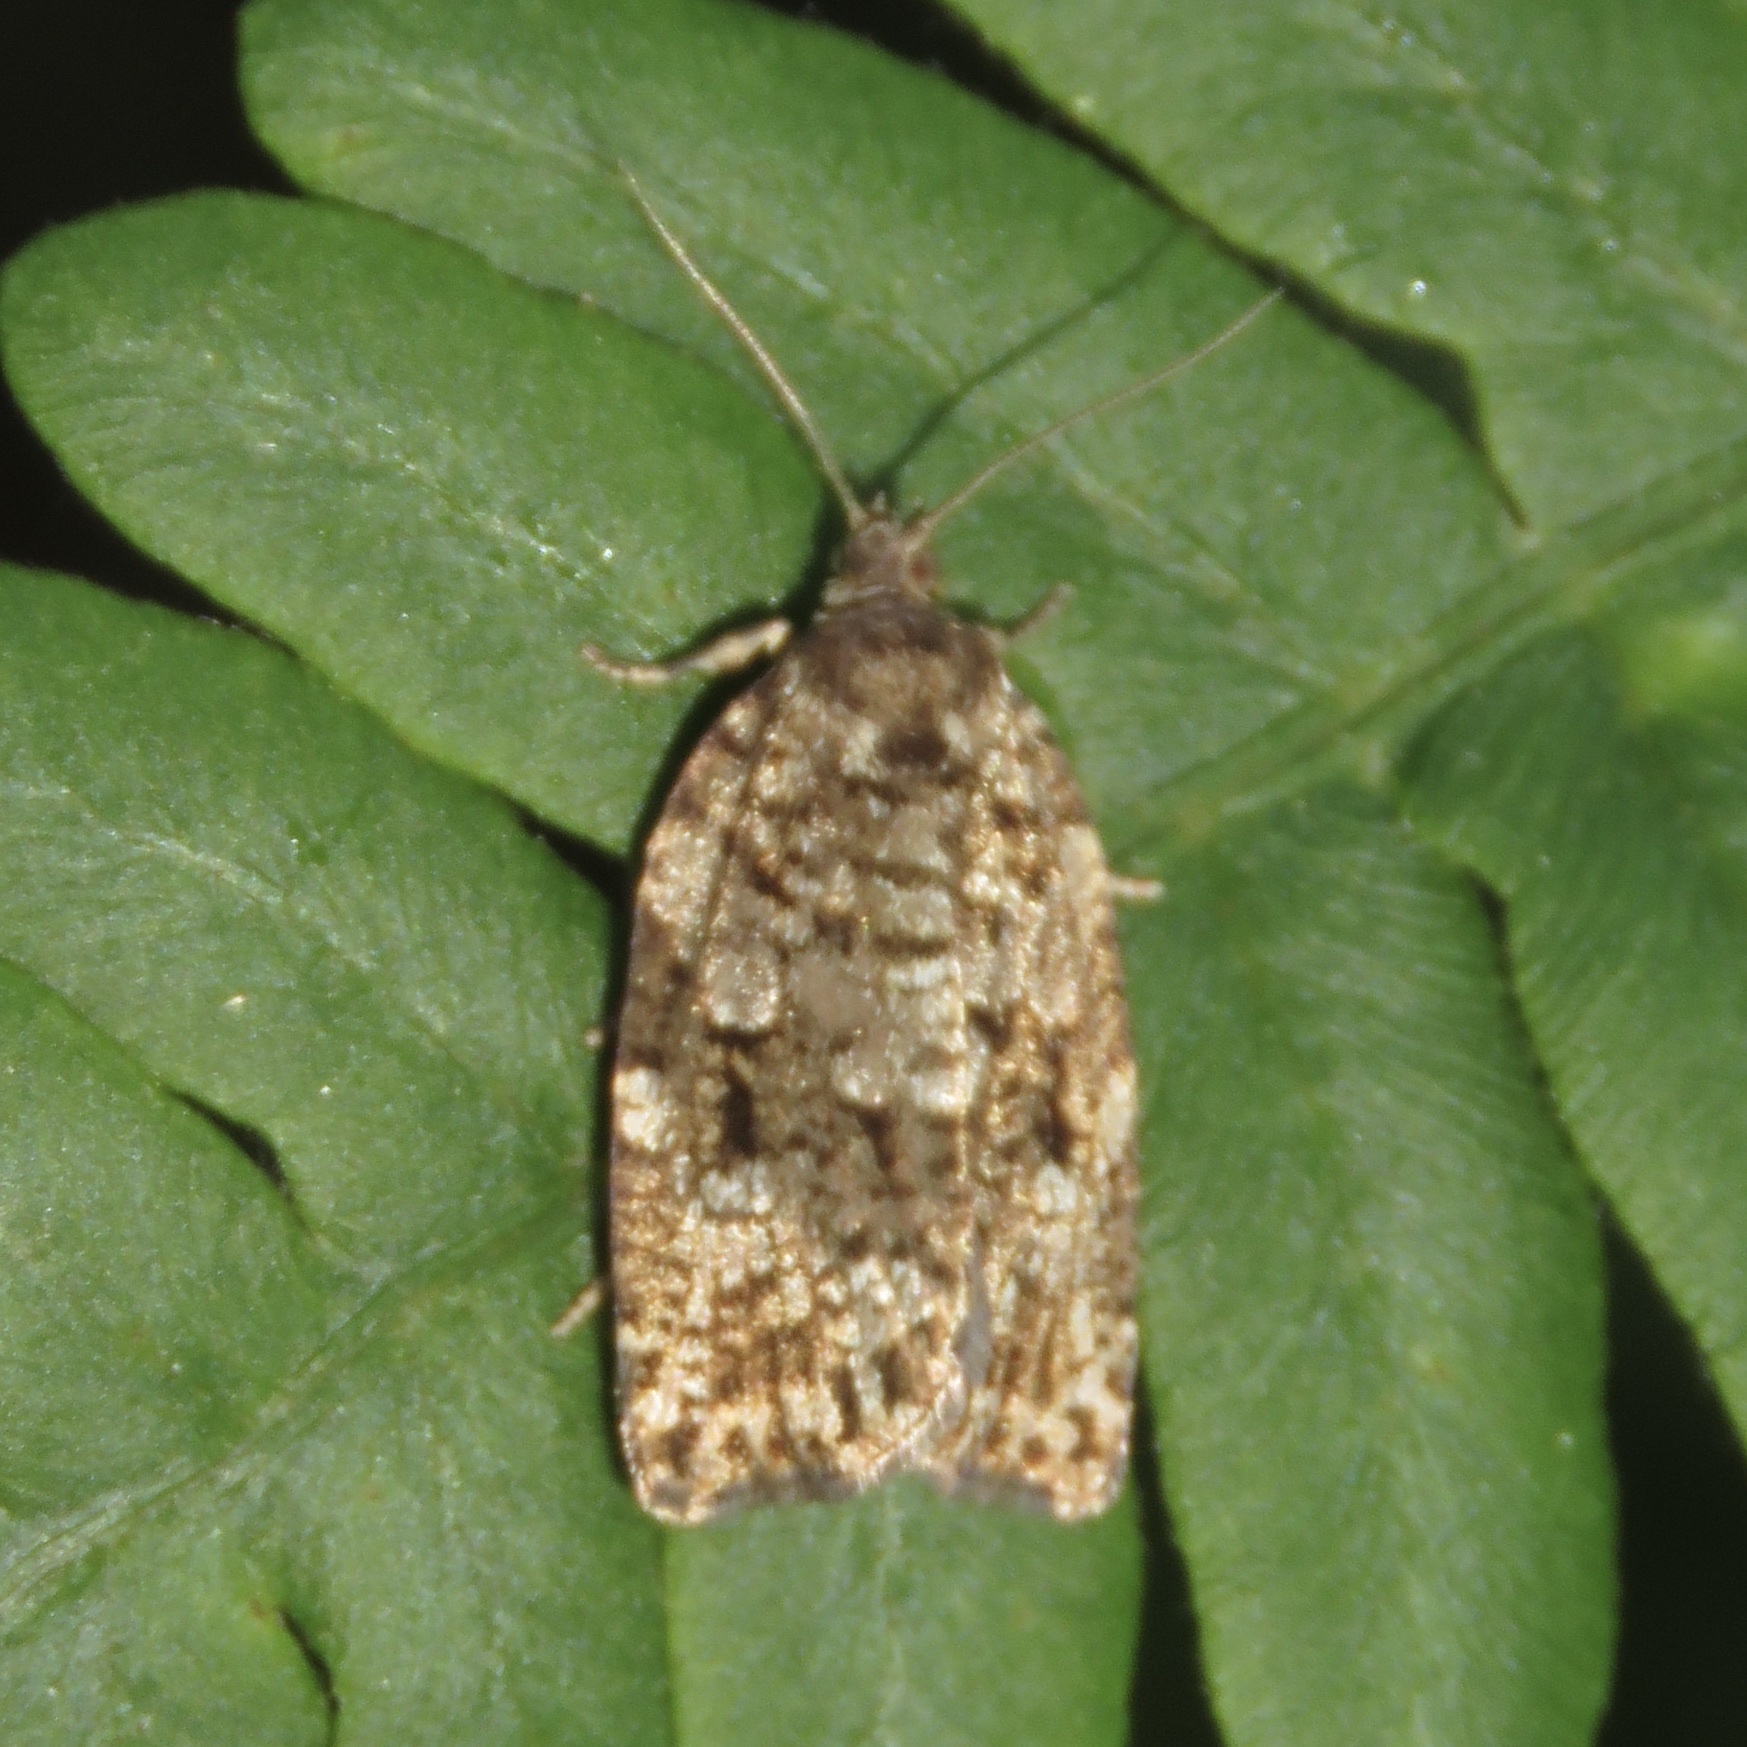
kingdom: Animalia
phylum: Arthropoda
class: Insecta
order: Lepidoptera
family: Tortricidae
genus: Choristoneura
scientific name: Choristoneura fumiferana
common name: Spruce budworm
